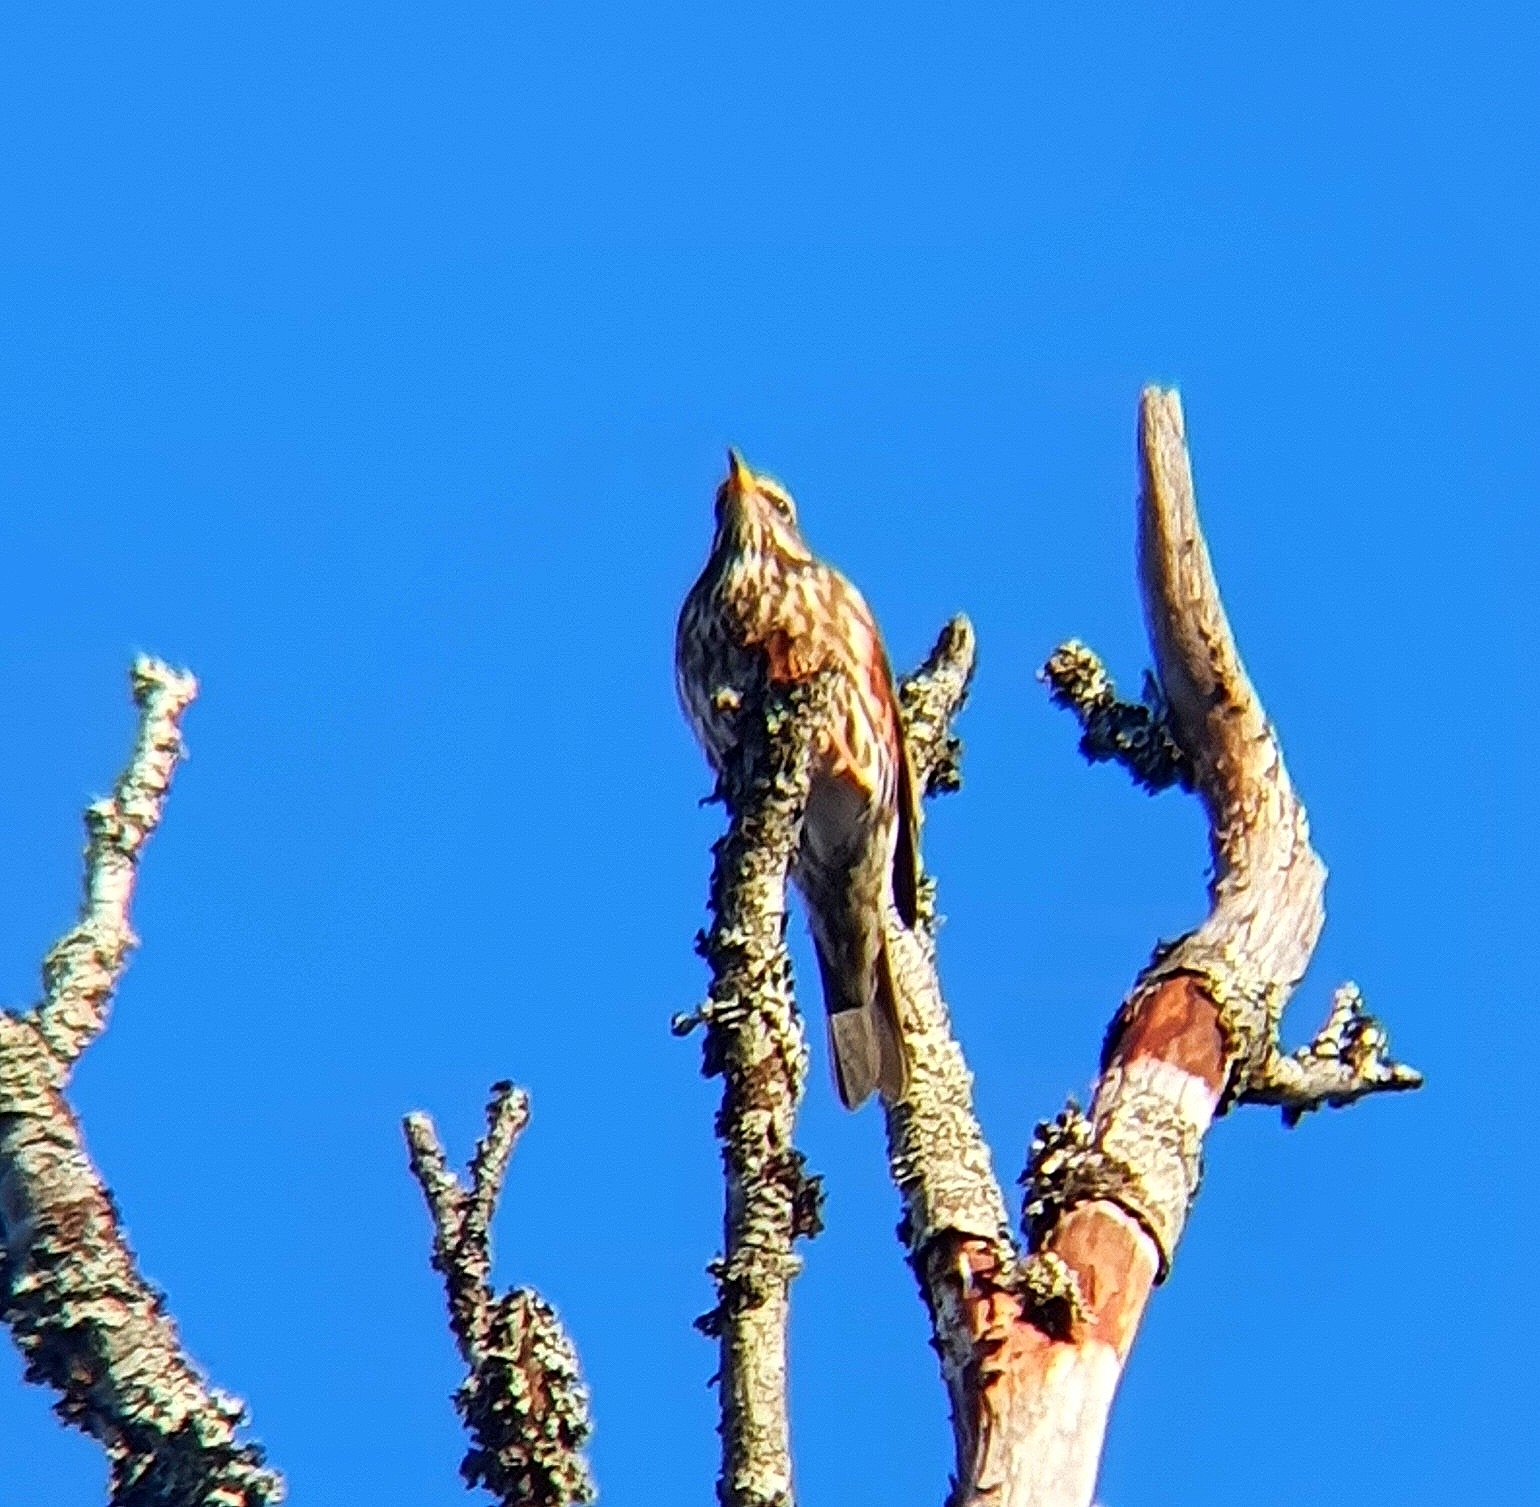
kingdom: Animalia
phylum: Chordata
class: Aves
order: Passeriformes
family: Turdidae
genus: Turdus
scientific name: Turdus iliacus
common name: Redwing
